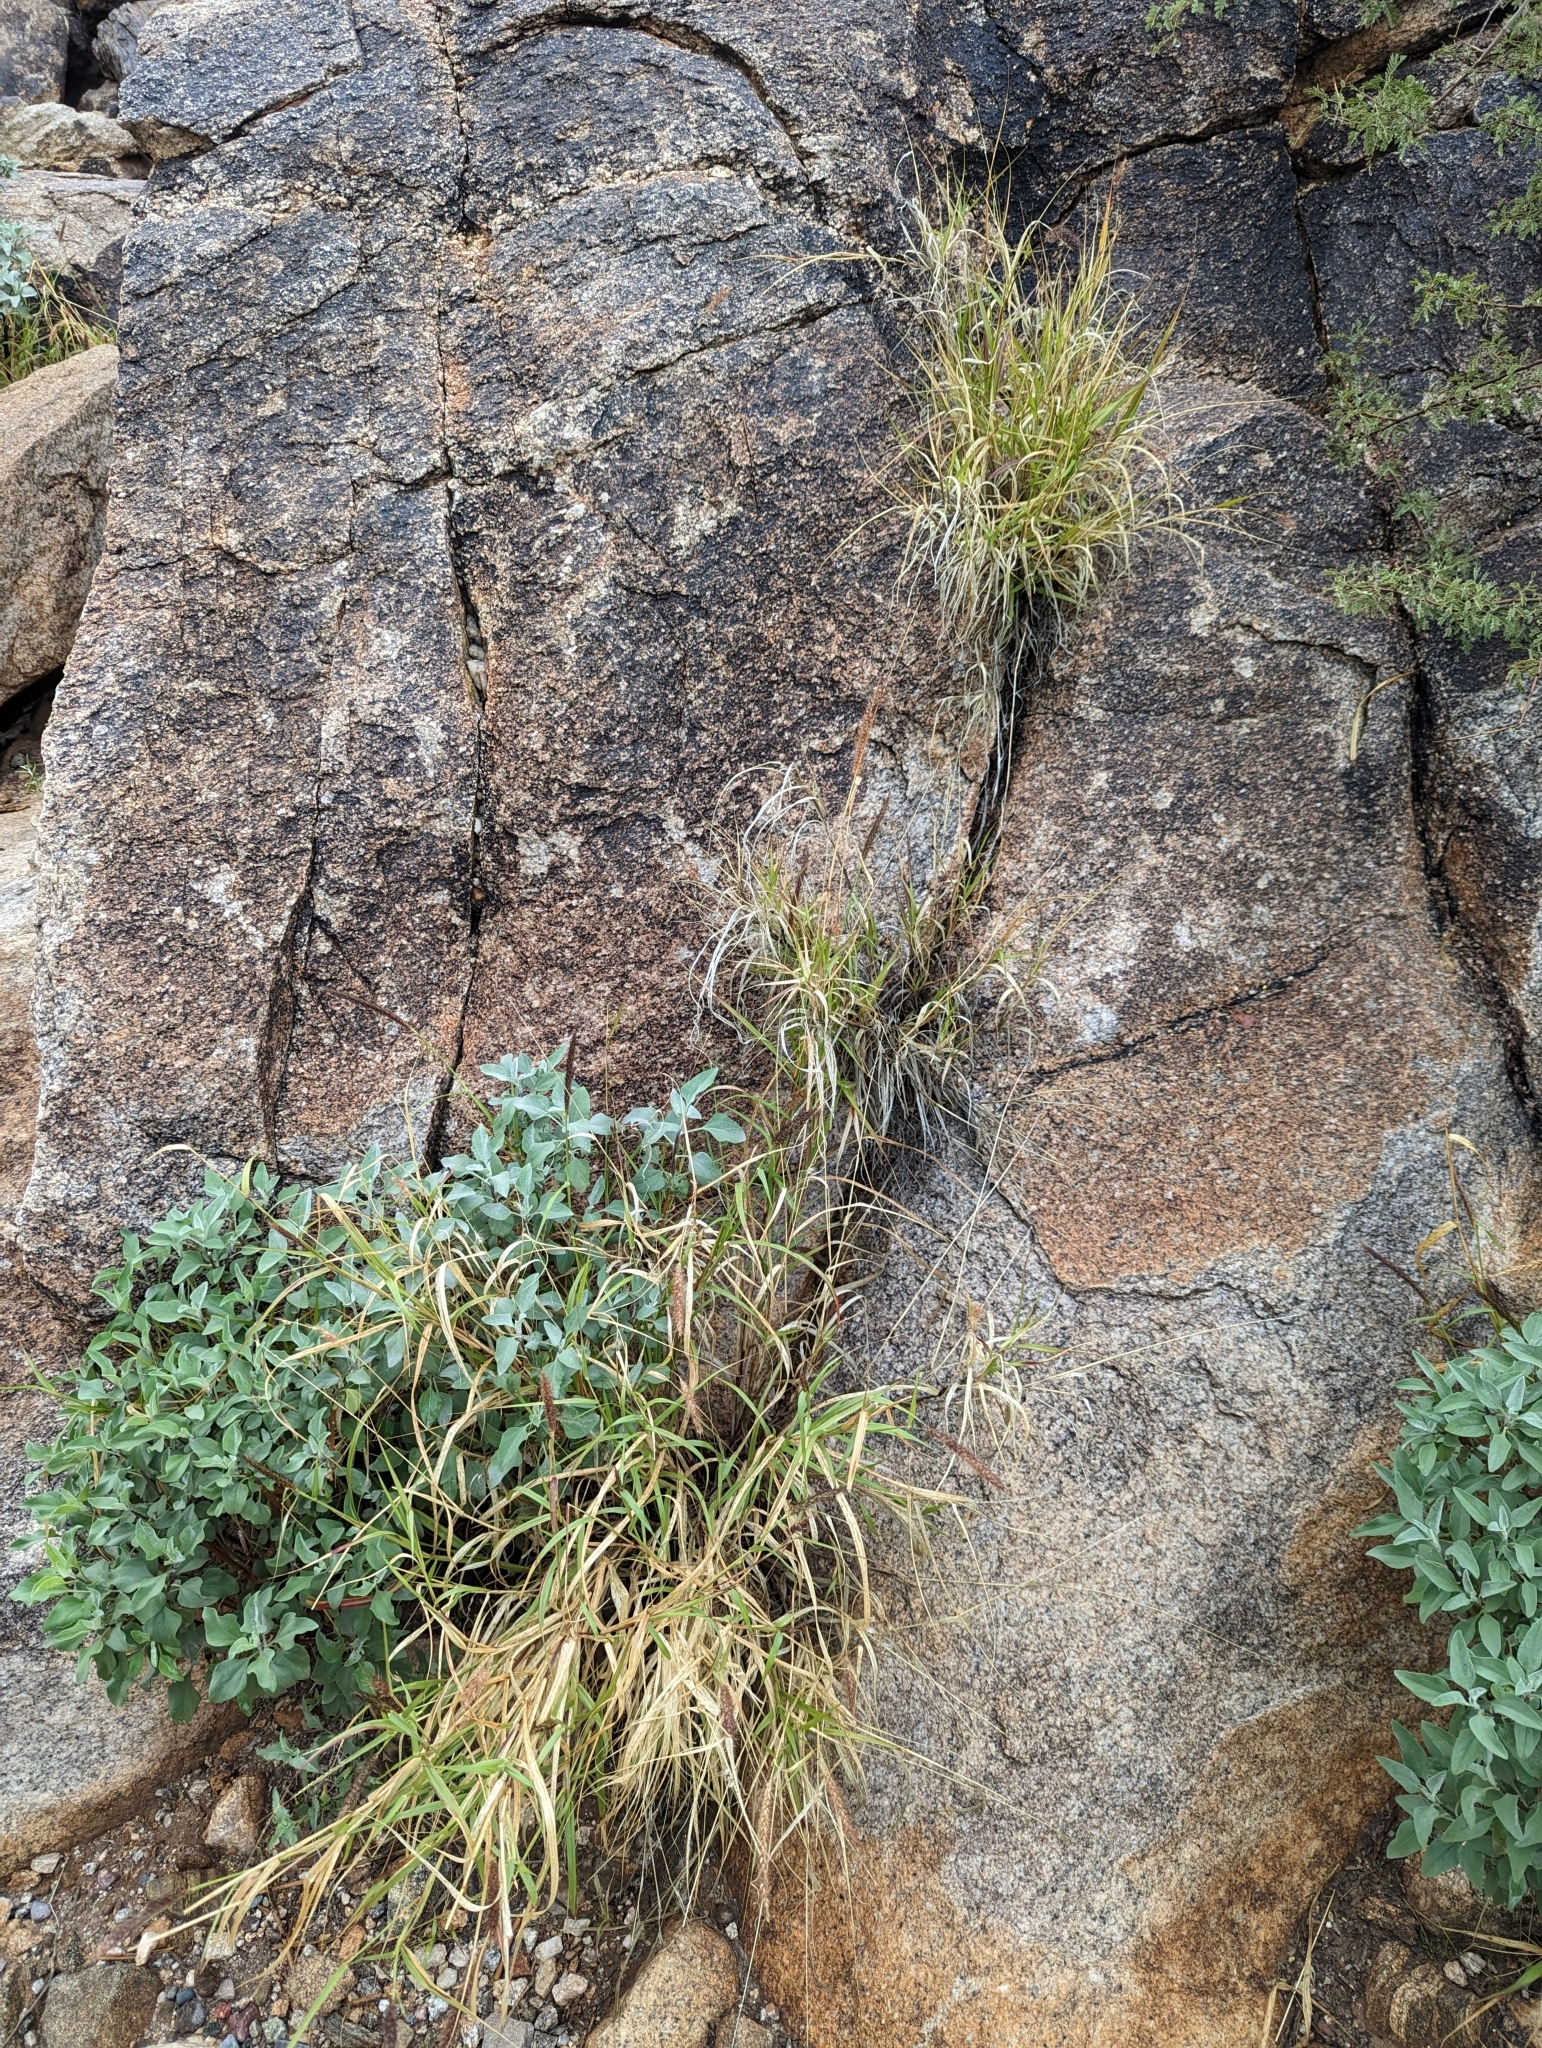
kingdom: Plantae
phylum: Tracheophyta
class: Liliopsida
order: Poales
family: Poaceae
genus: Cenchrus
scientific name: Cenchrus ciliaris
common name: Buffelgrass
